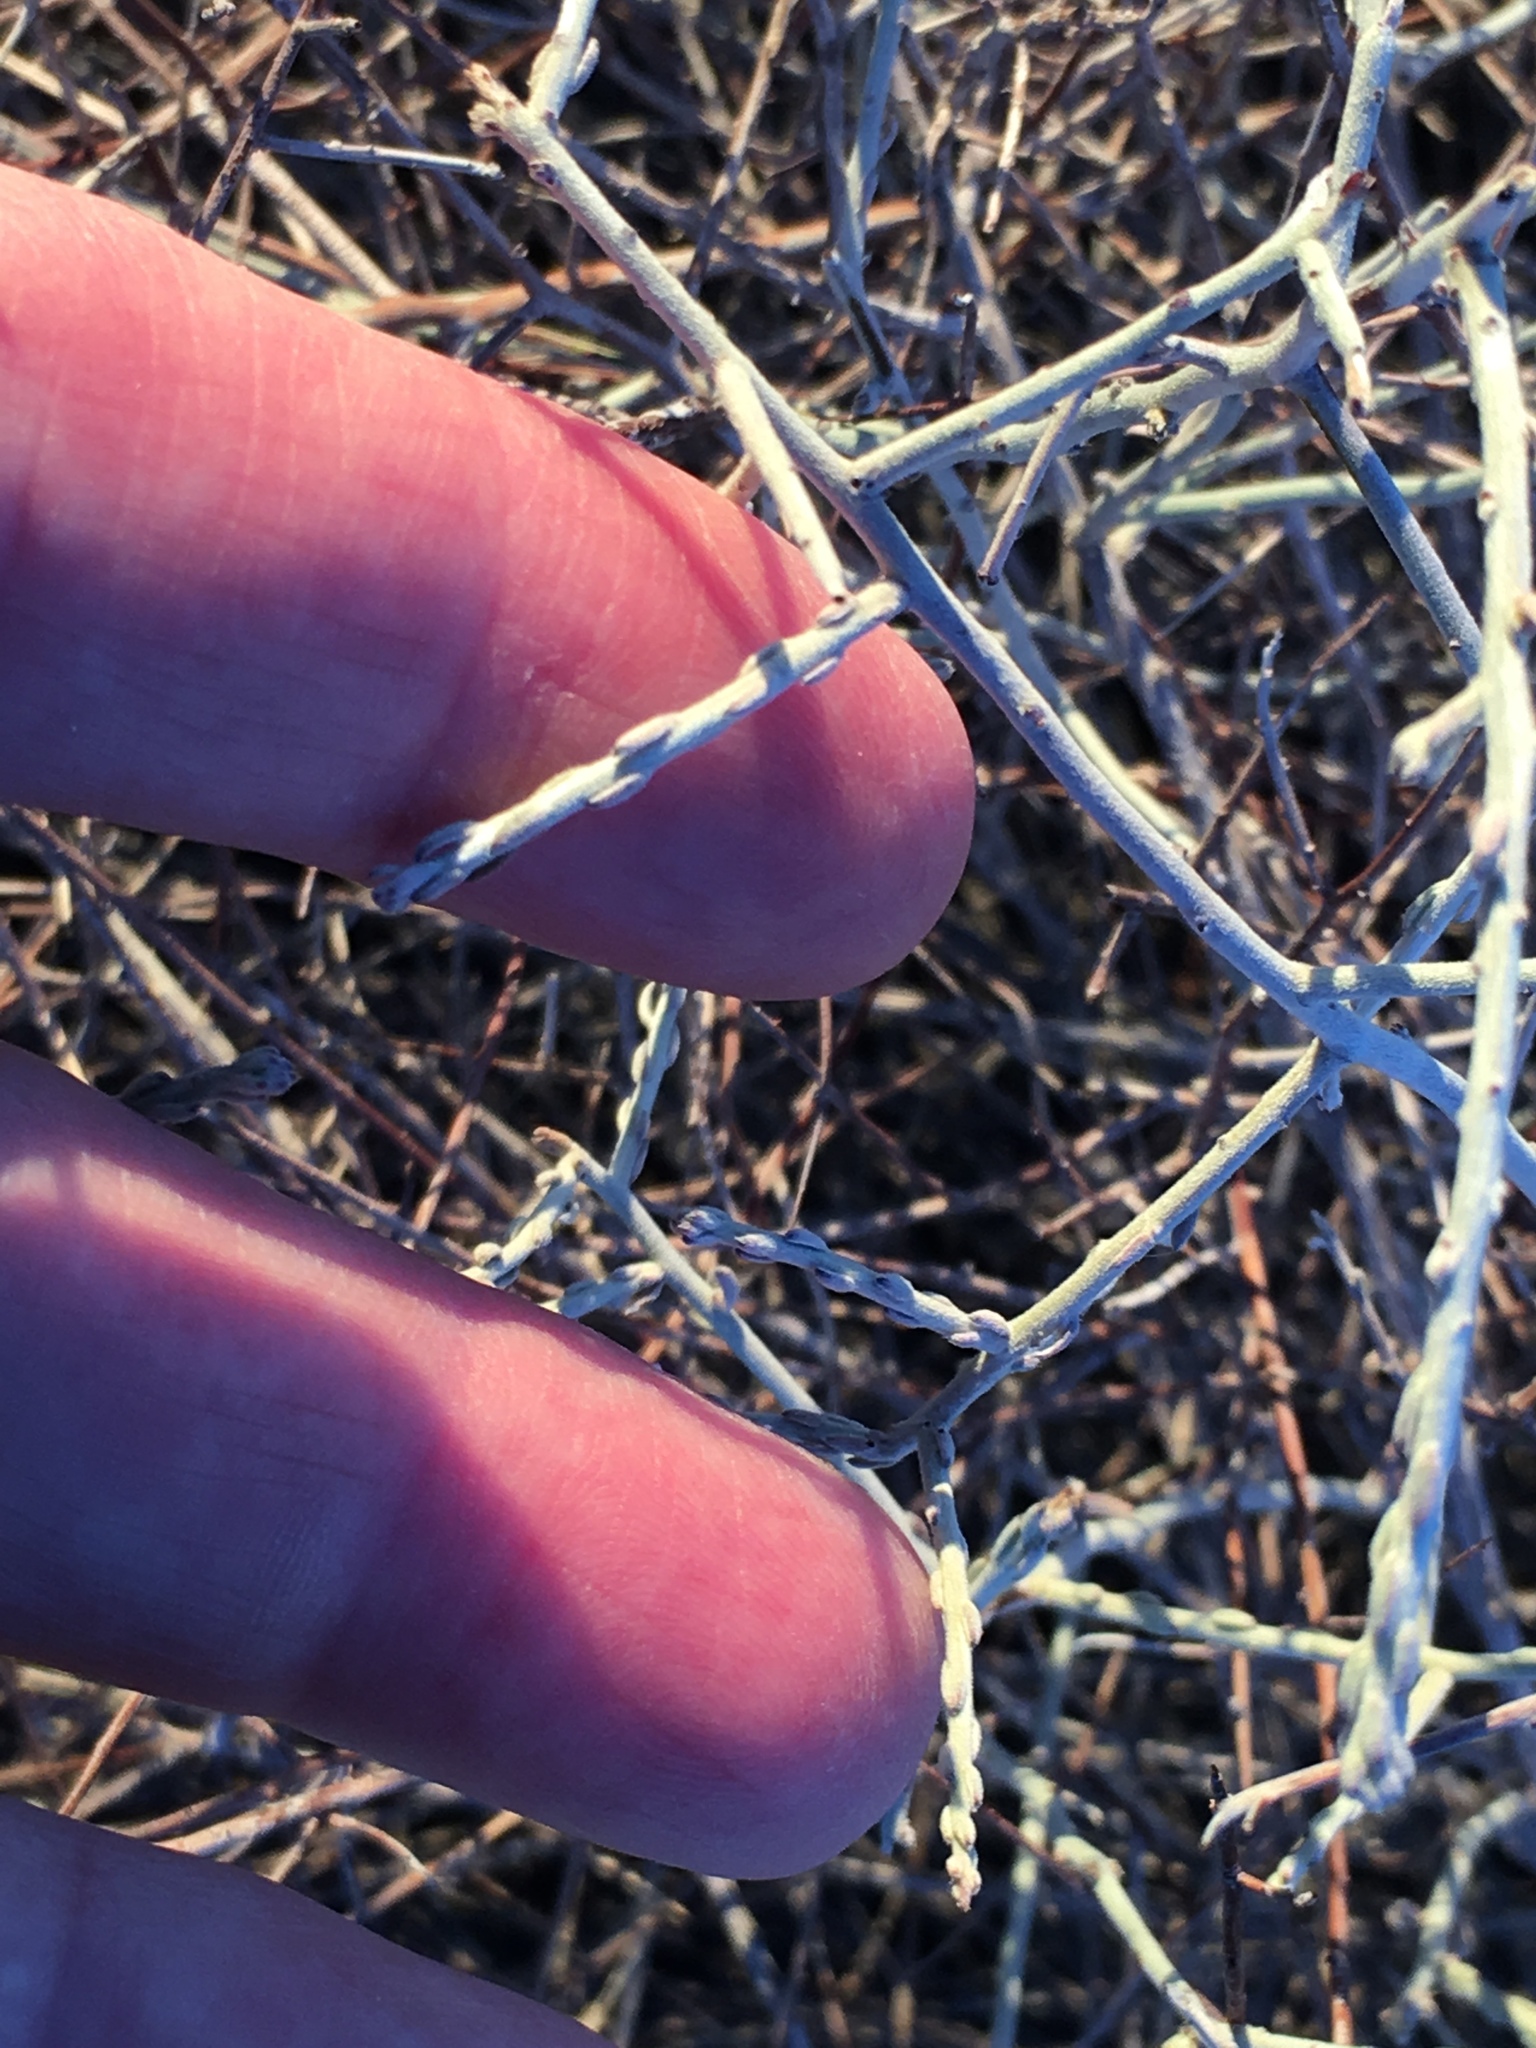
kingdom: Plantae
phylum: Tracheophyta
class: Magnoliopsida
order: Zygophyllales
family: Krameriaceae
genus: Krameria
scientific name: Krameria bicolor
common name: White ratany
